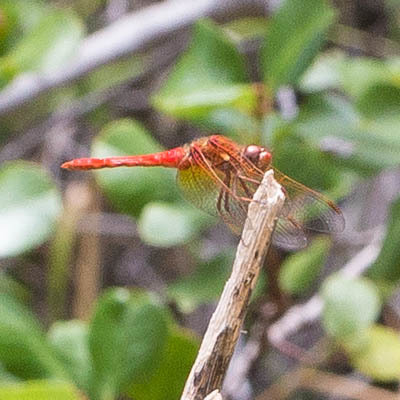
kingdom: Animalia
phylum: Arthropoda
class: Insecta
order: Odonata
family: Libellulidae
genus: Sympetrum
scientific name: Sympetrum illotum
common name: Cardinal meadowhawk
